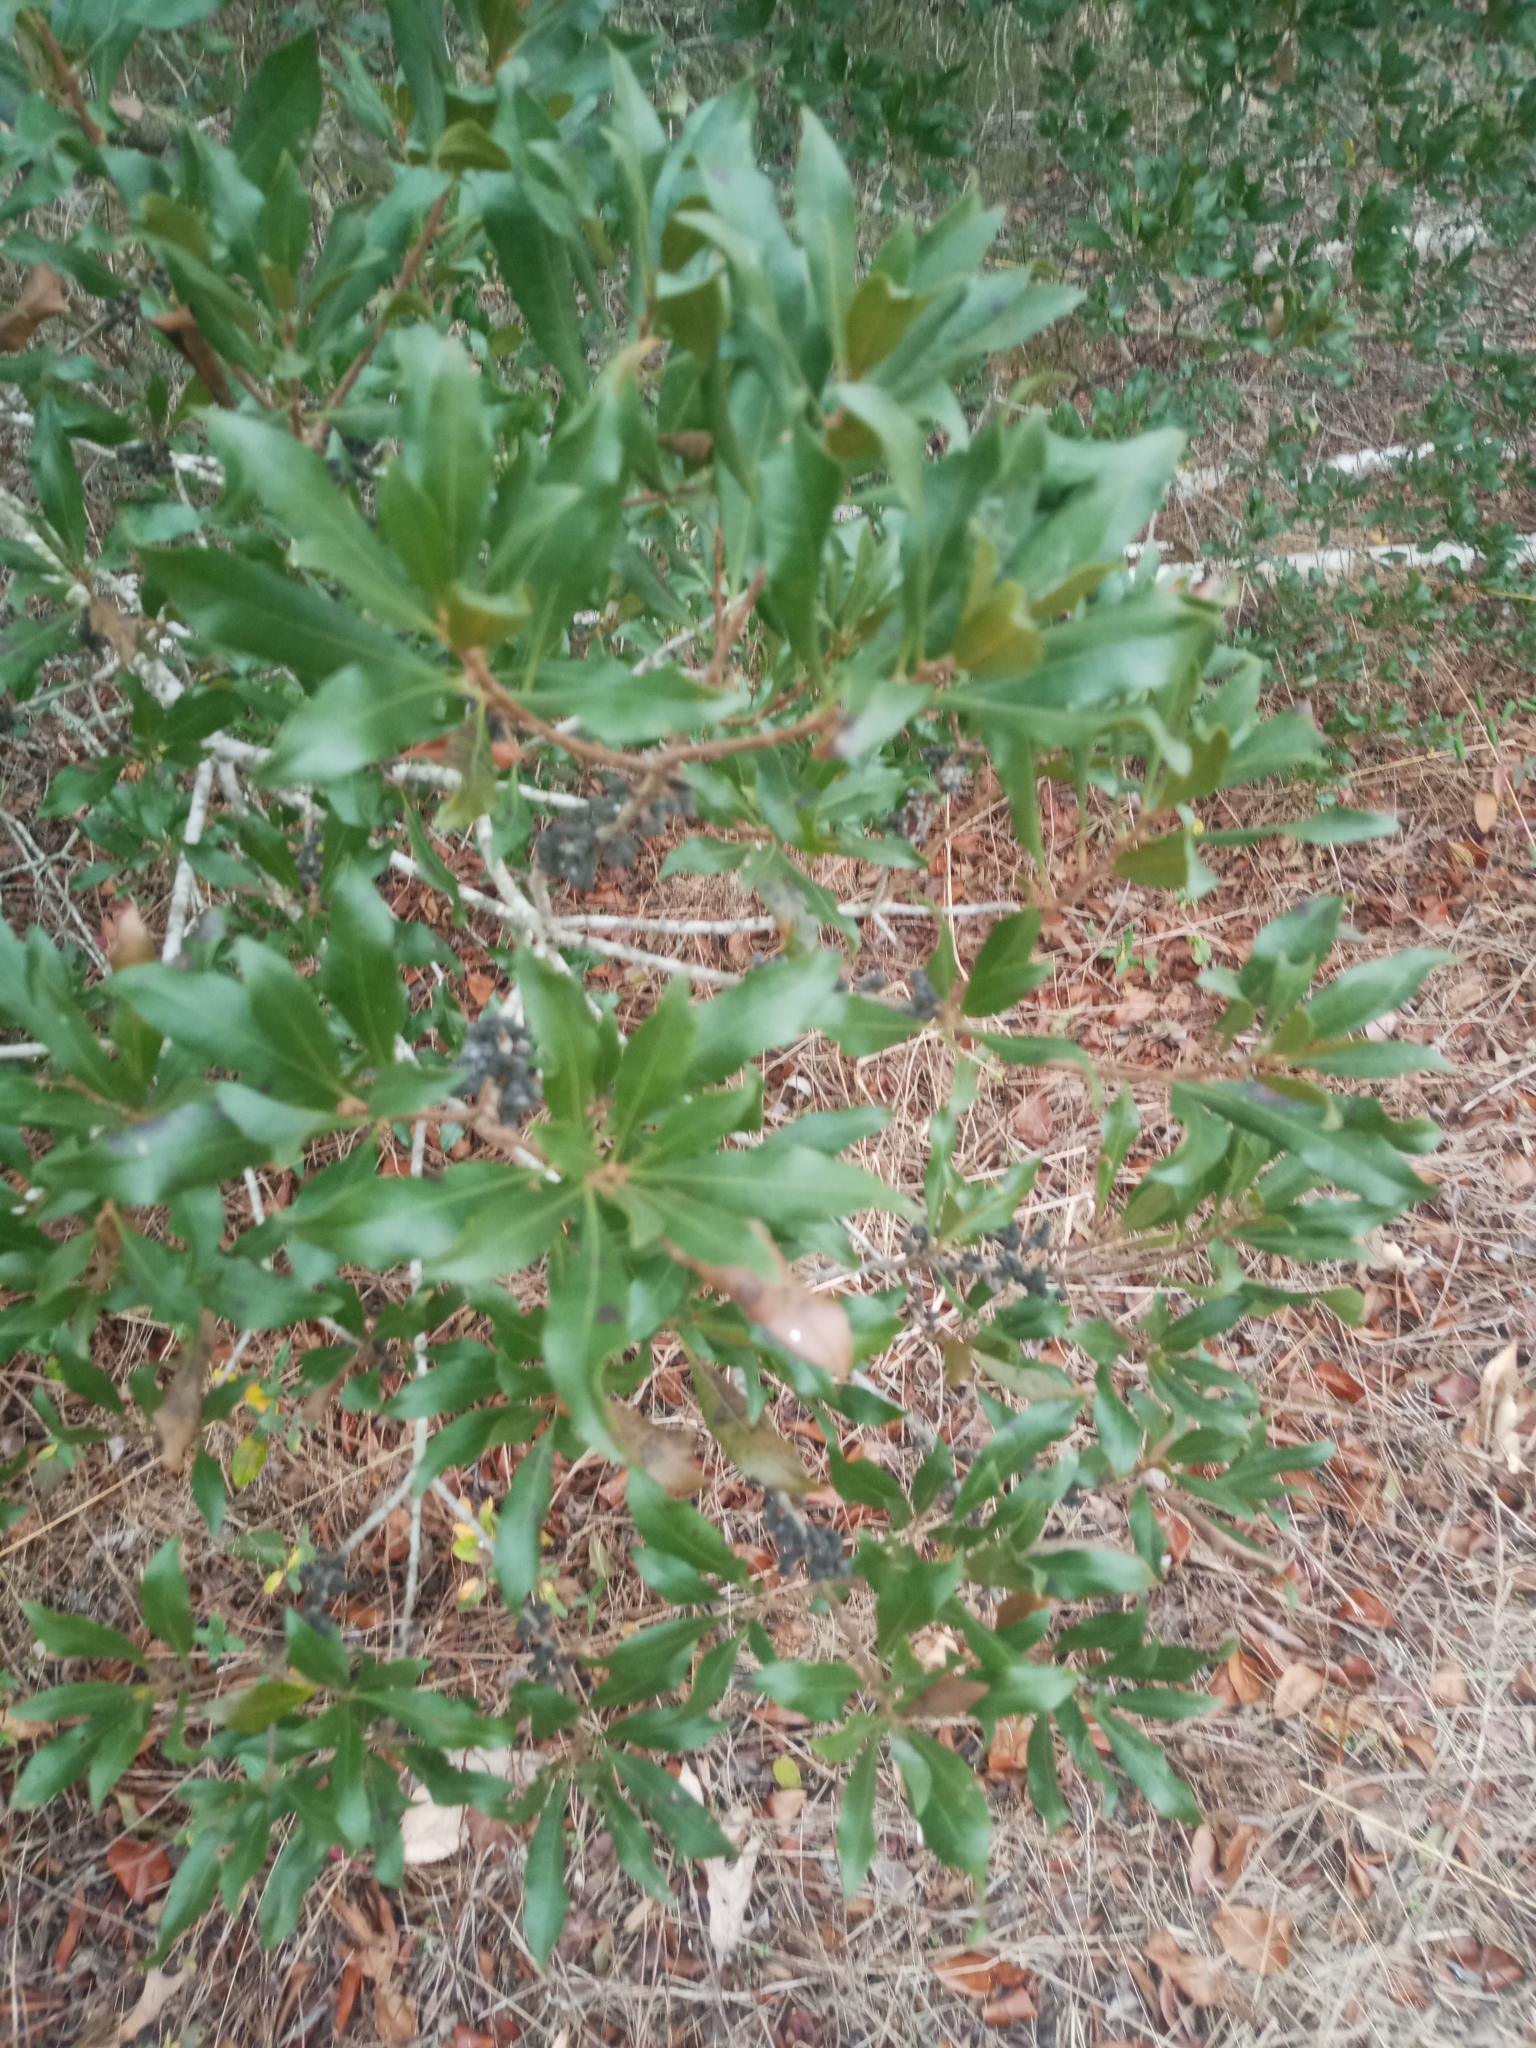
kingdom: Plantae
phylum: Tracheophyta
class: Magnoliopsida
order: Fagales
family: Myricaceae
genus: Morella
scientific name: Morella cerifera
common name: Wax myrtle
